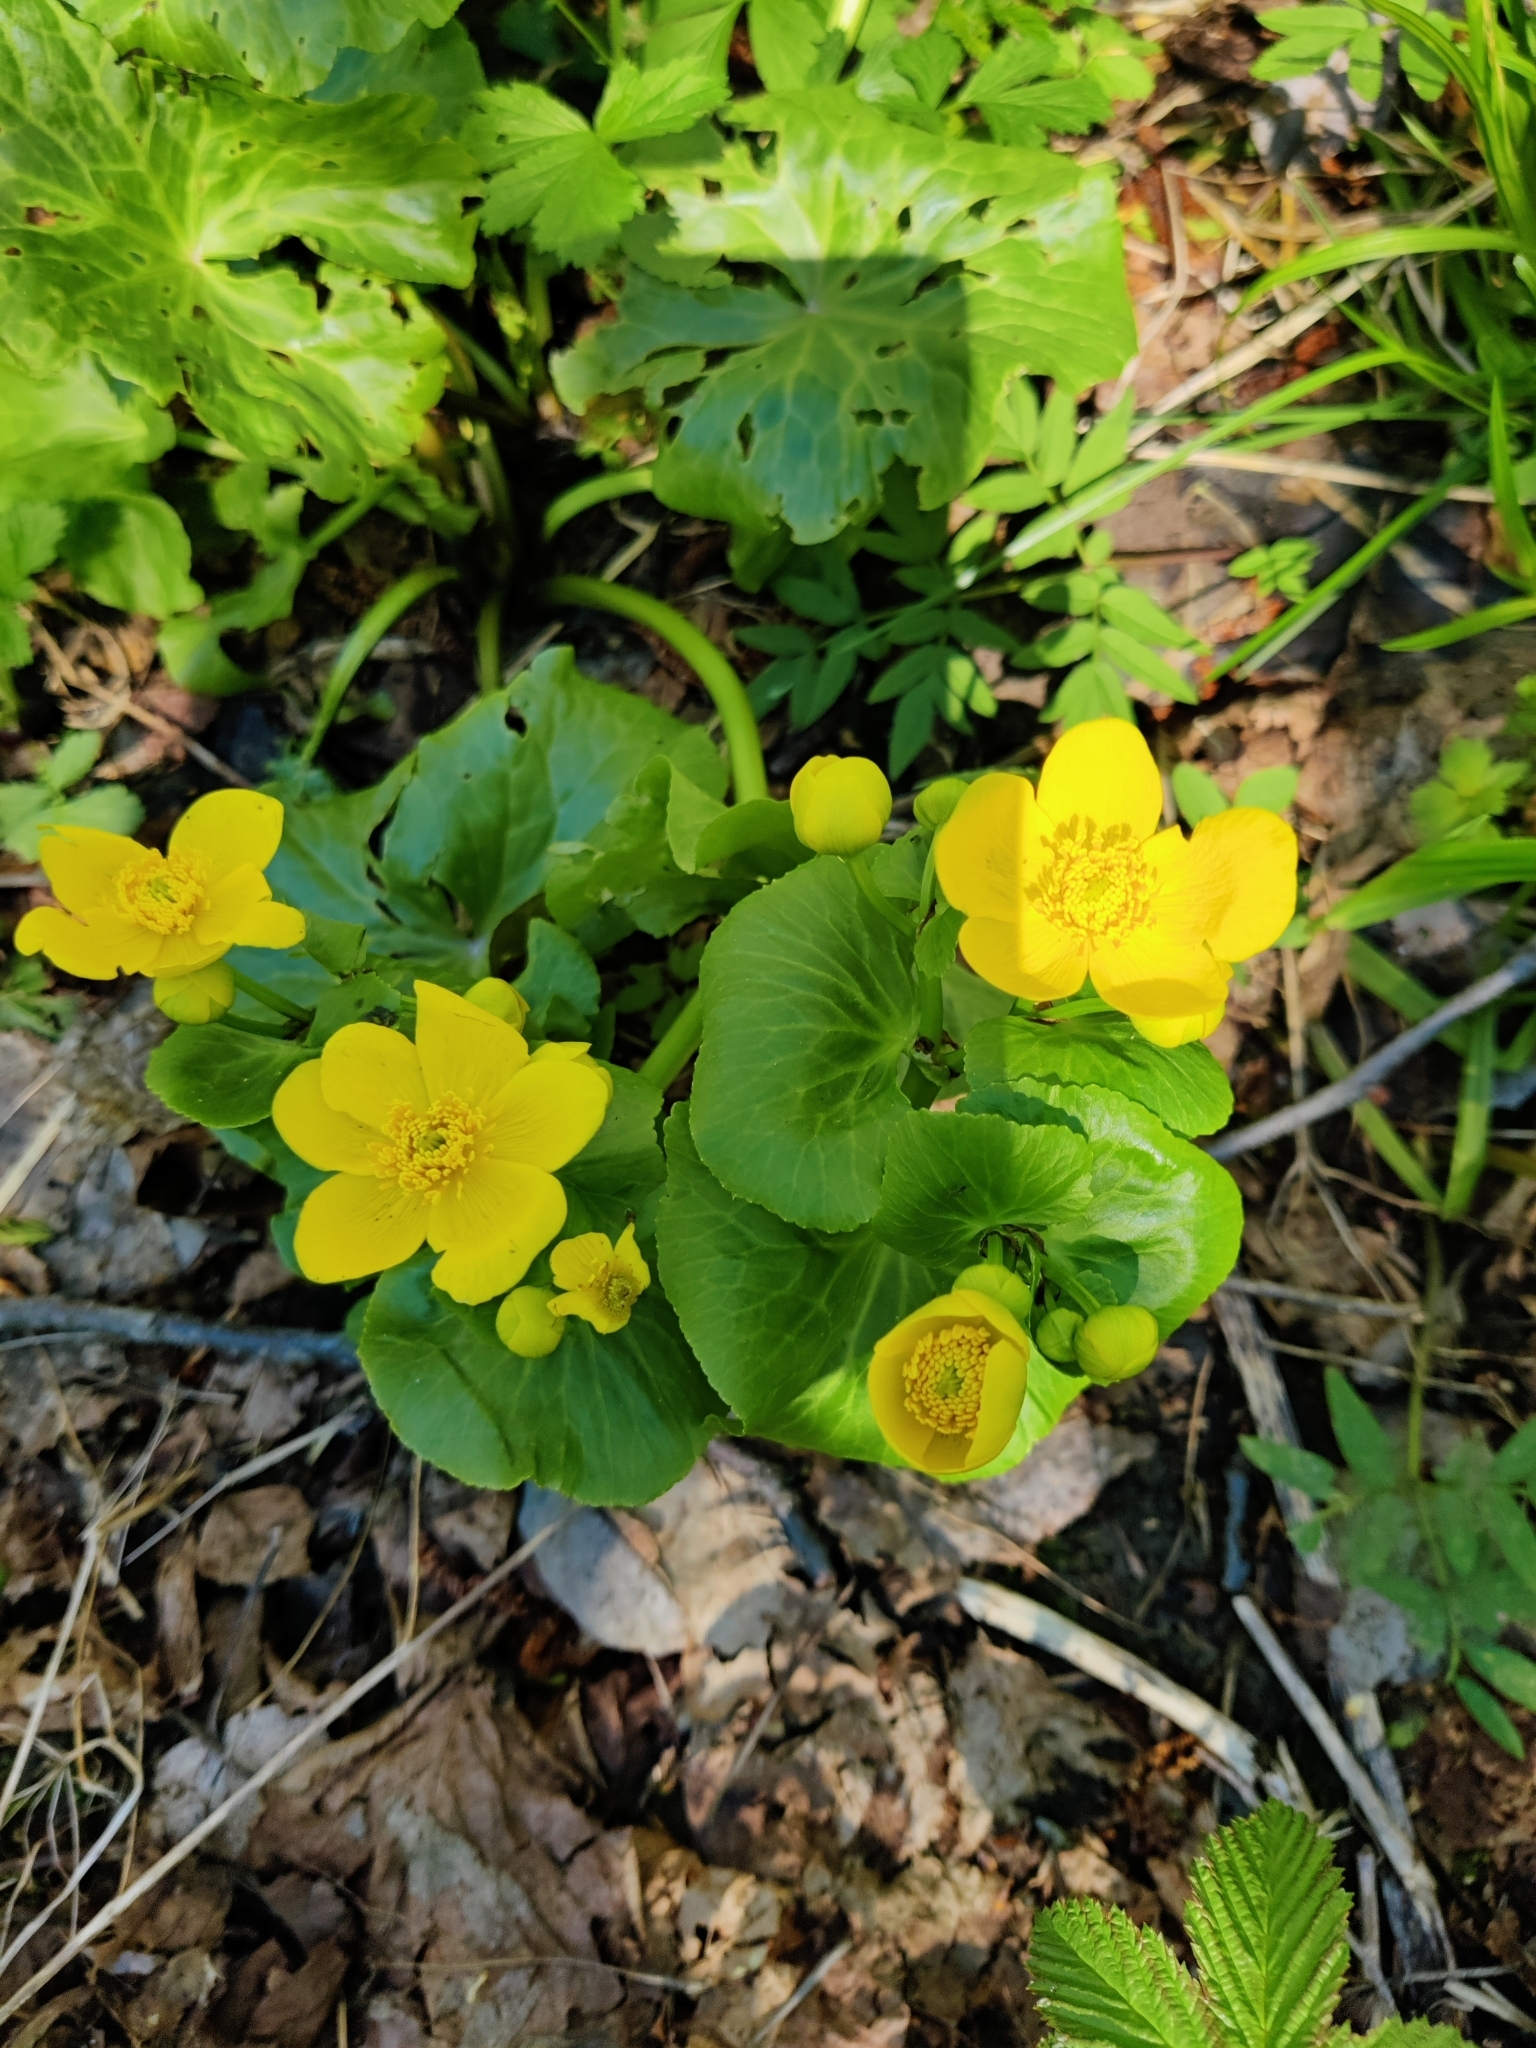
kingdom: Plantae
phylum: Tracheophyta
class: Magnoliopsida
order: Ranunculales
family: Ranunculaceae
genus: Caltha
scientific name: Caltha palustris
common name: Marsh marigold
